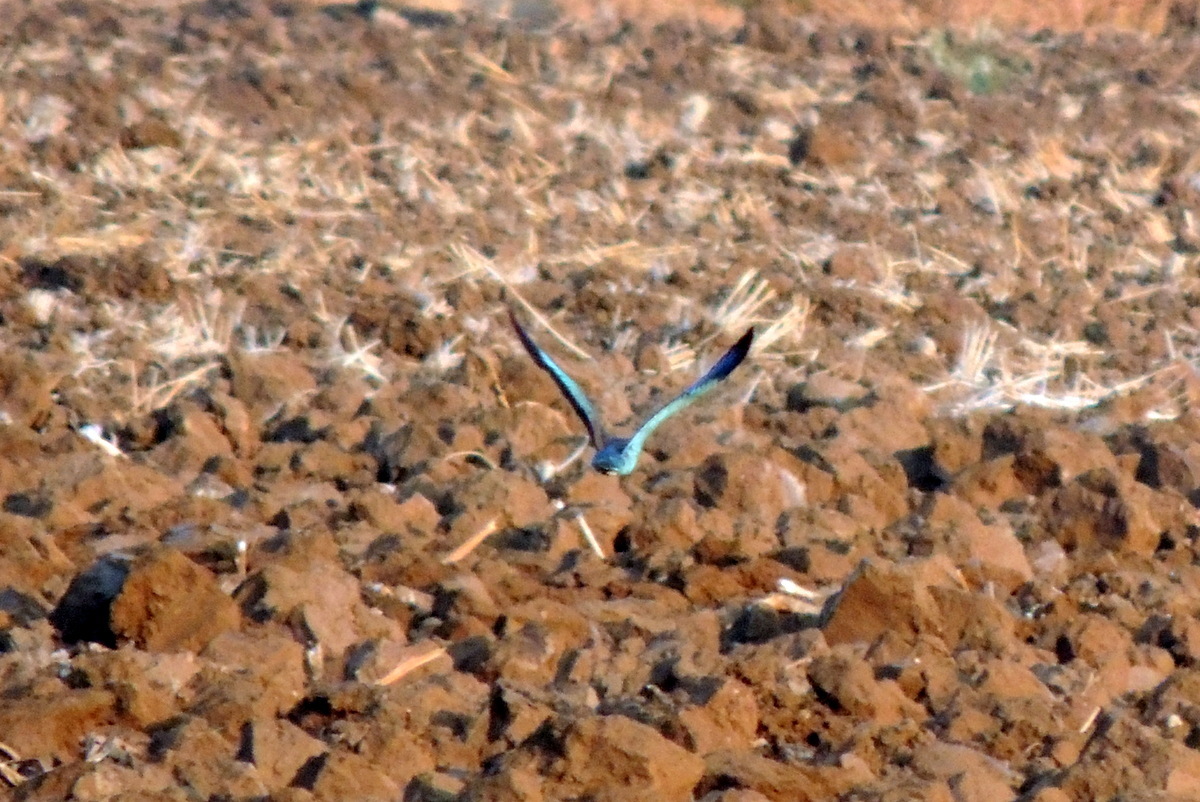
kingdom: Animalia
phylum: Chordata
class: Aves
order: Coraciiformes
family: Coraciidae
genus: Coracias
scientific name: Coracias garrulus
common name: European roller
